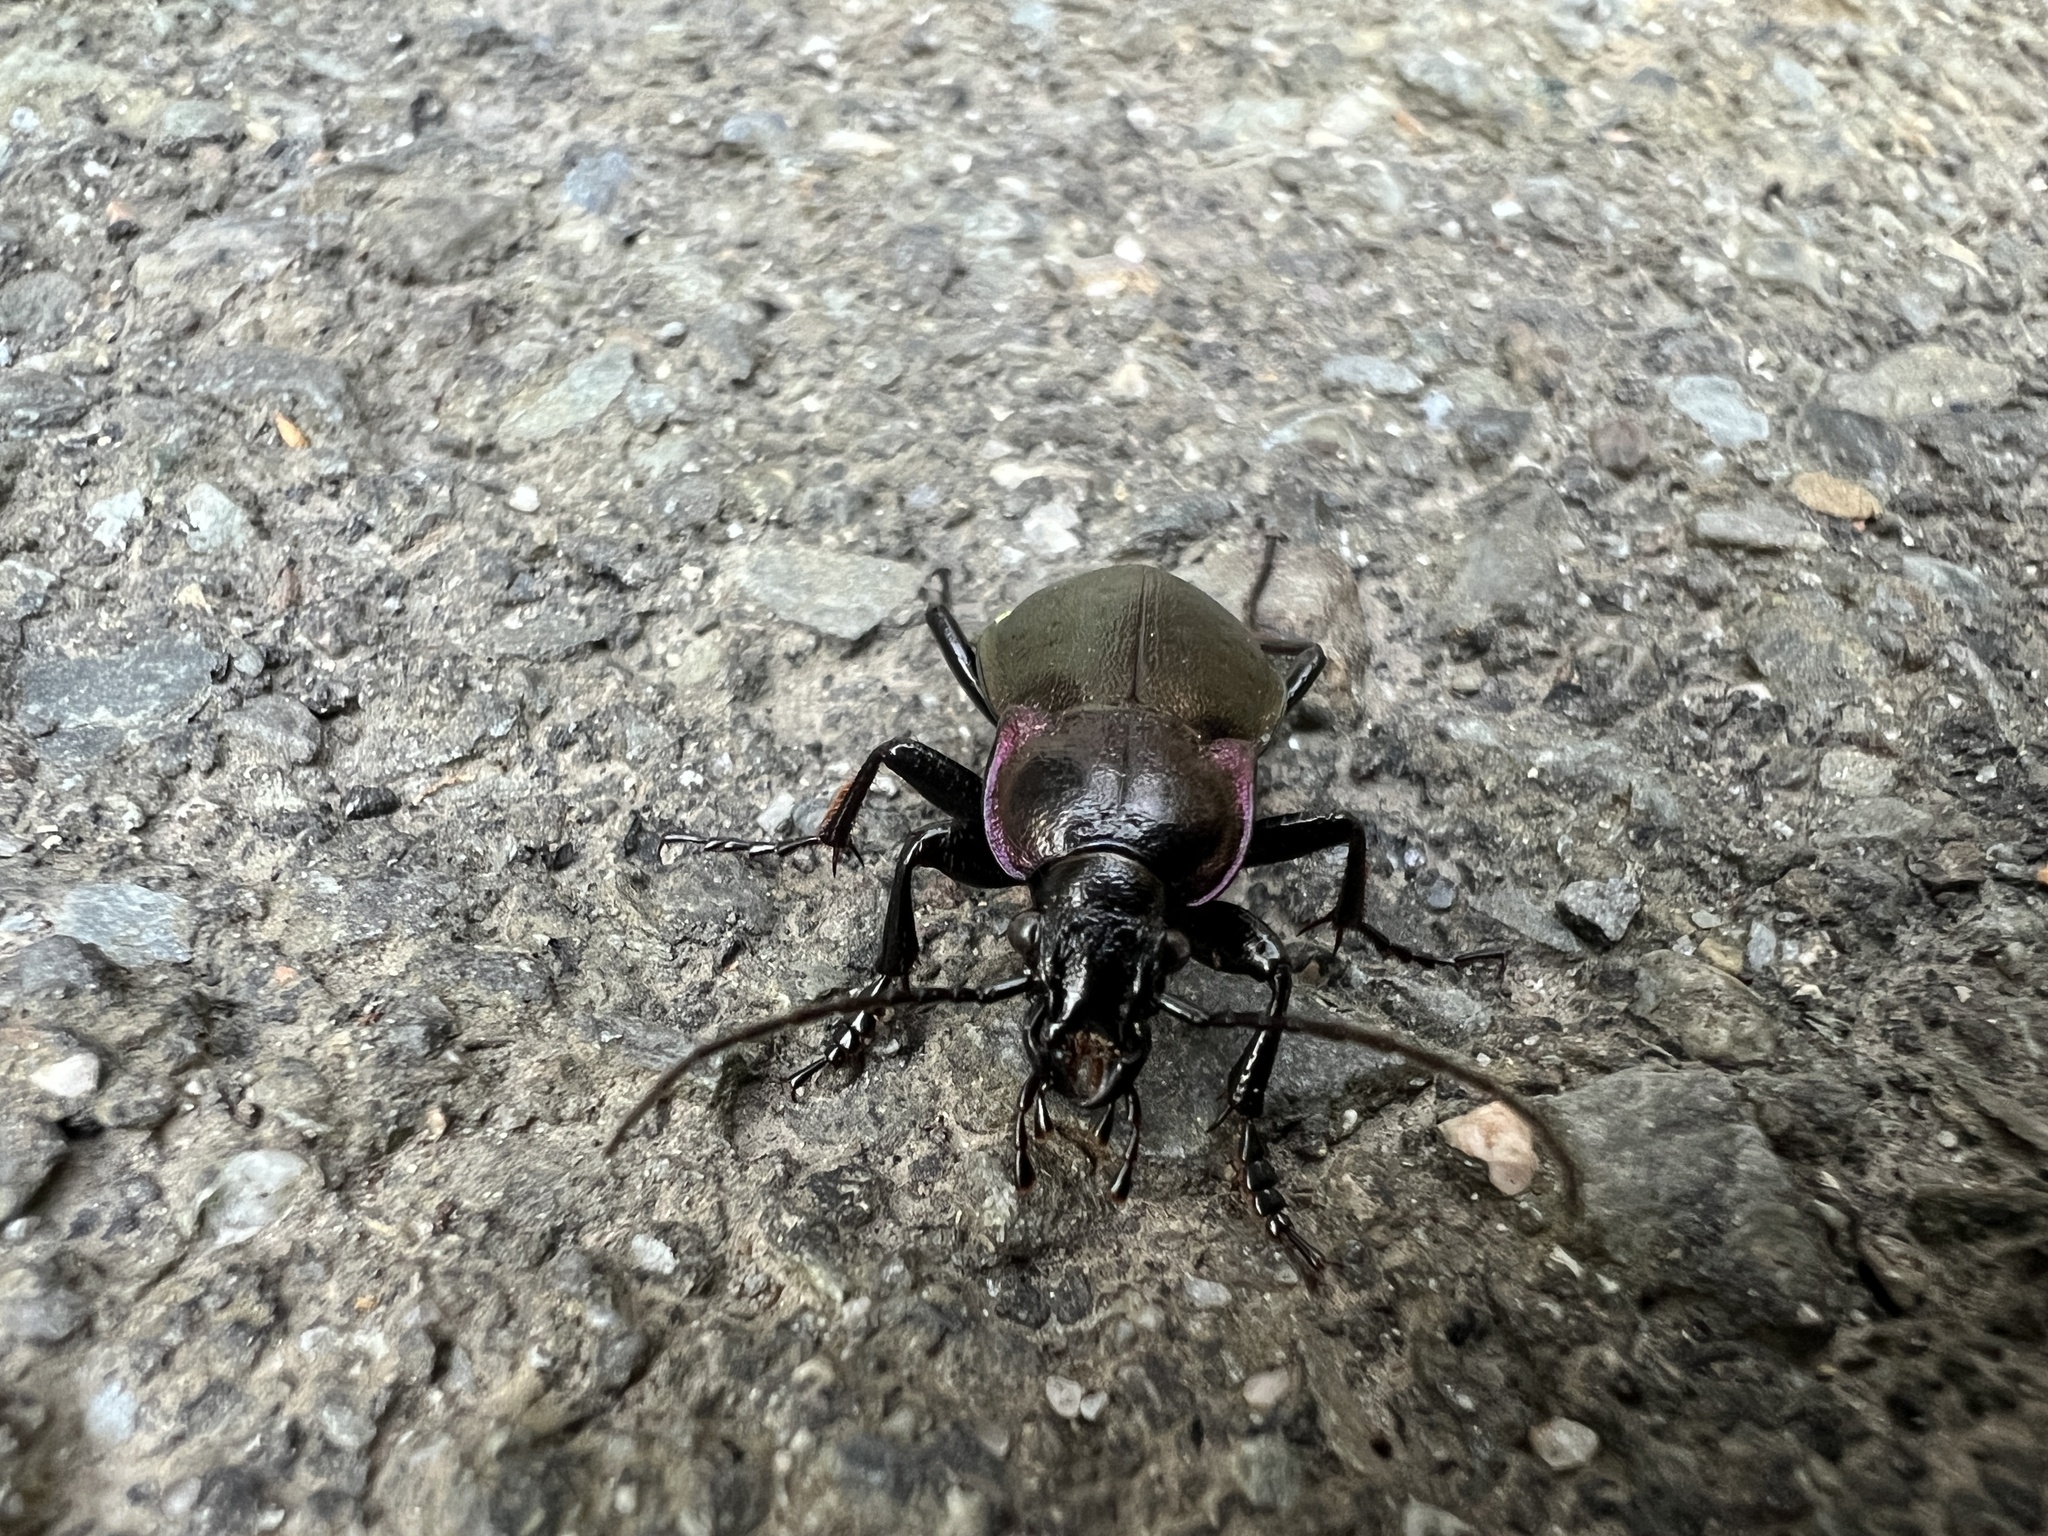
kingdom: Animalia
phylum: Arthropoda
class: Insecta
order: Coleoptera
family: Carabidae
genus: Carabus
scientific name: Carabus nemoralis
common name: European ground beetle
